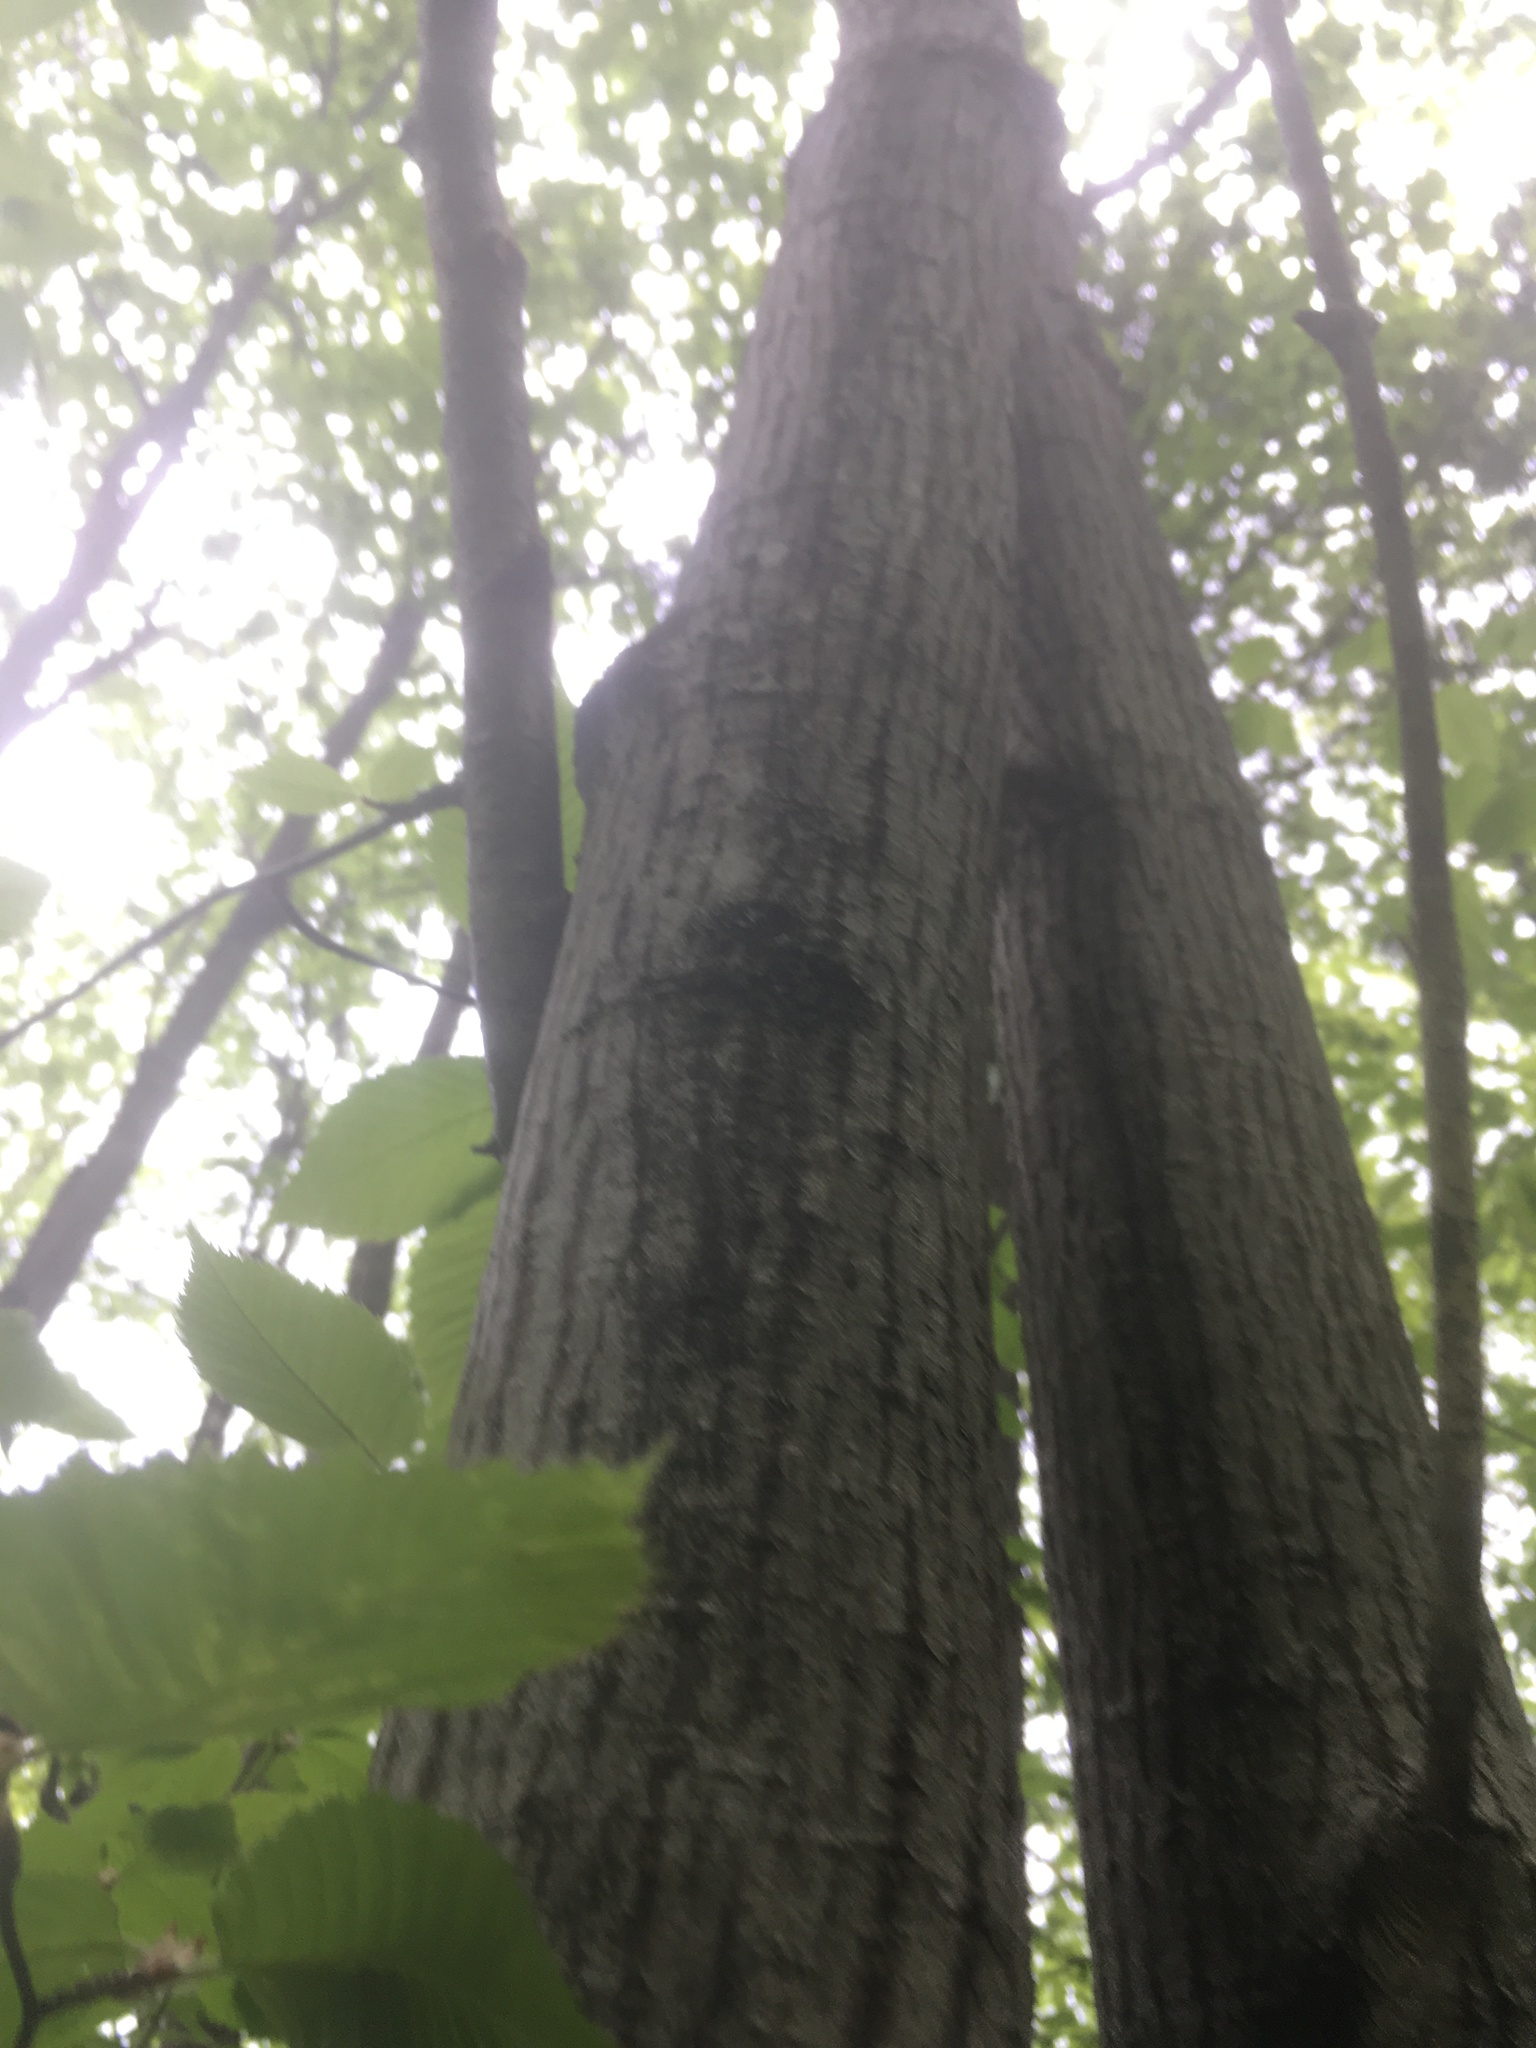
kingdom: Plantae
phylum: Tracheophyta
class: Magnoliopsida
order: Sapindales
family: Sapindaceae
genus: Acer
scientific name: Acer pensylvanicum
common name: Moosewood
